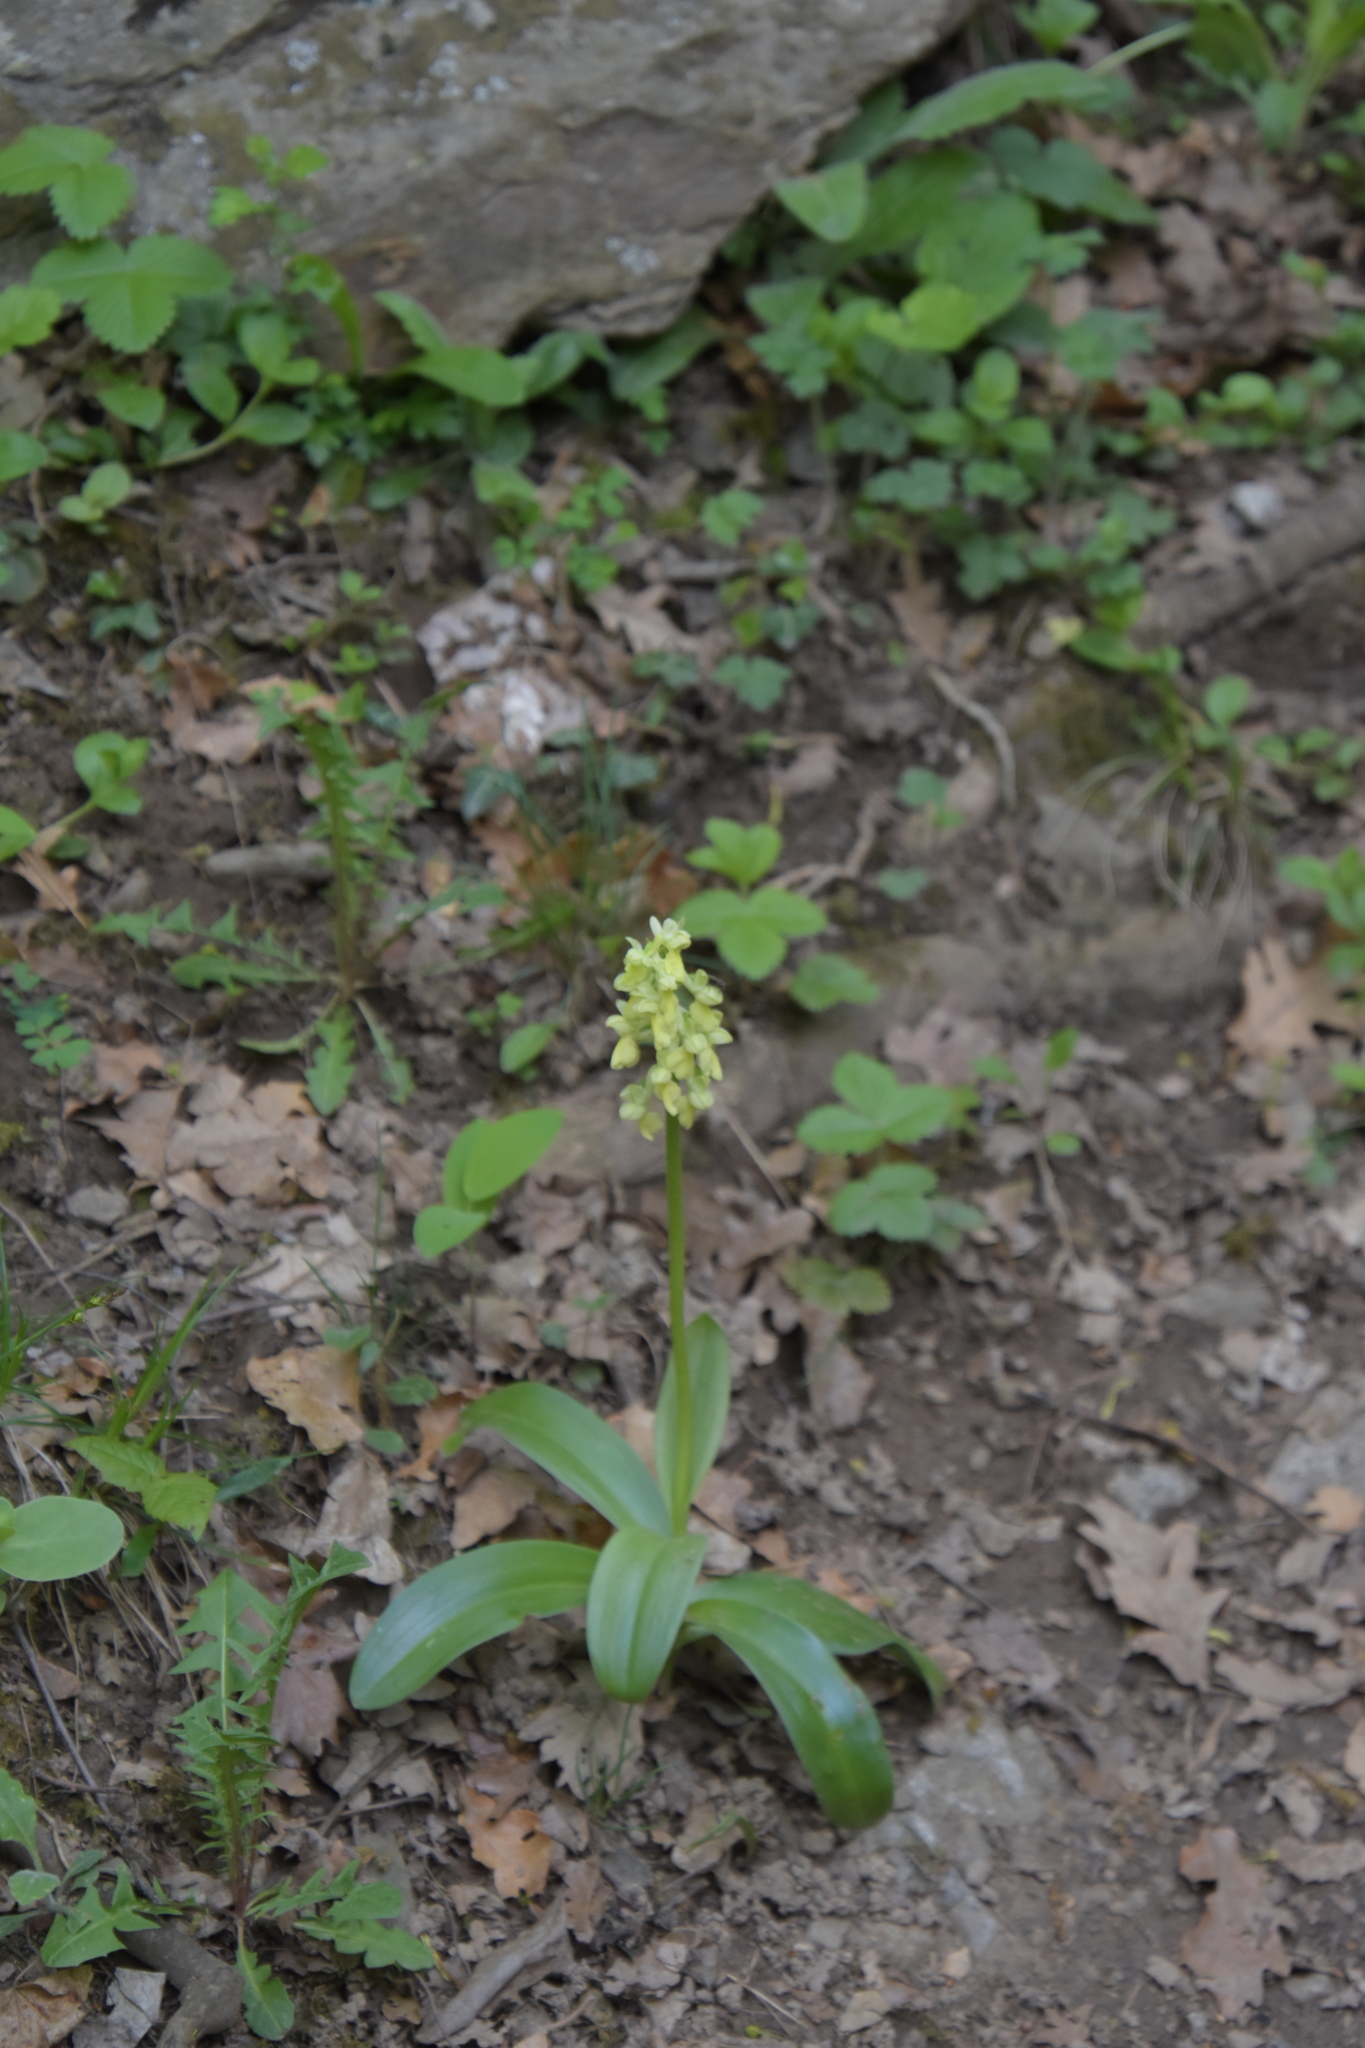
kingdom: Plantae
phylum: Tracheophyta
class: Liliopsida
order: Asparagales
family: Orchidaceae
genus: Orchis
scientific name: Orchis pallens
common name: Pale-flowered orchid
